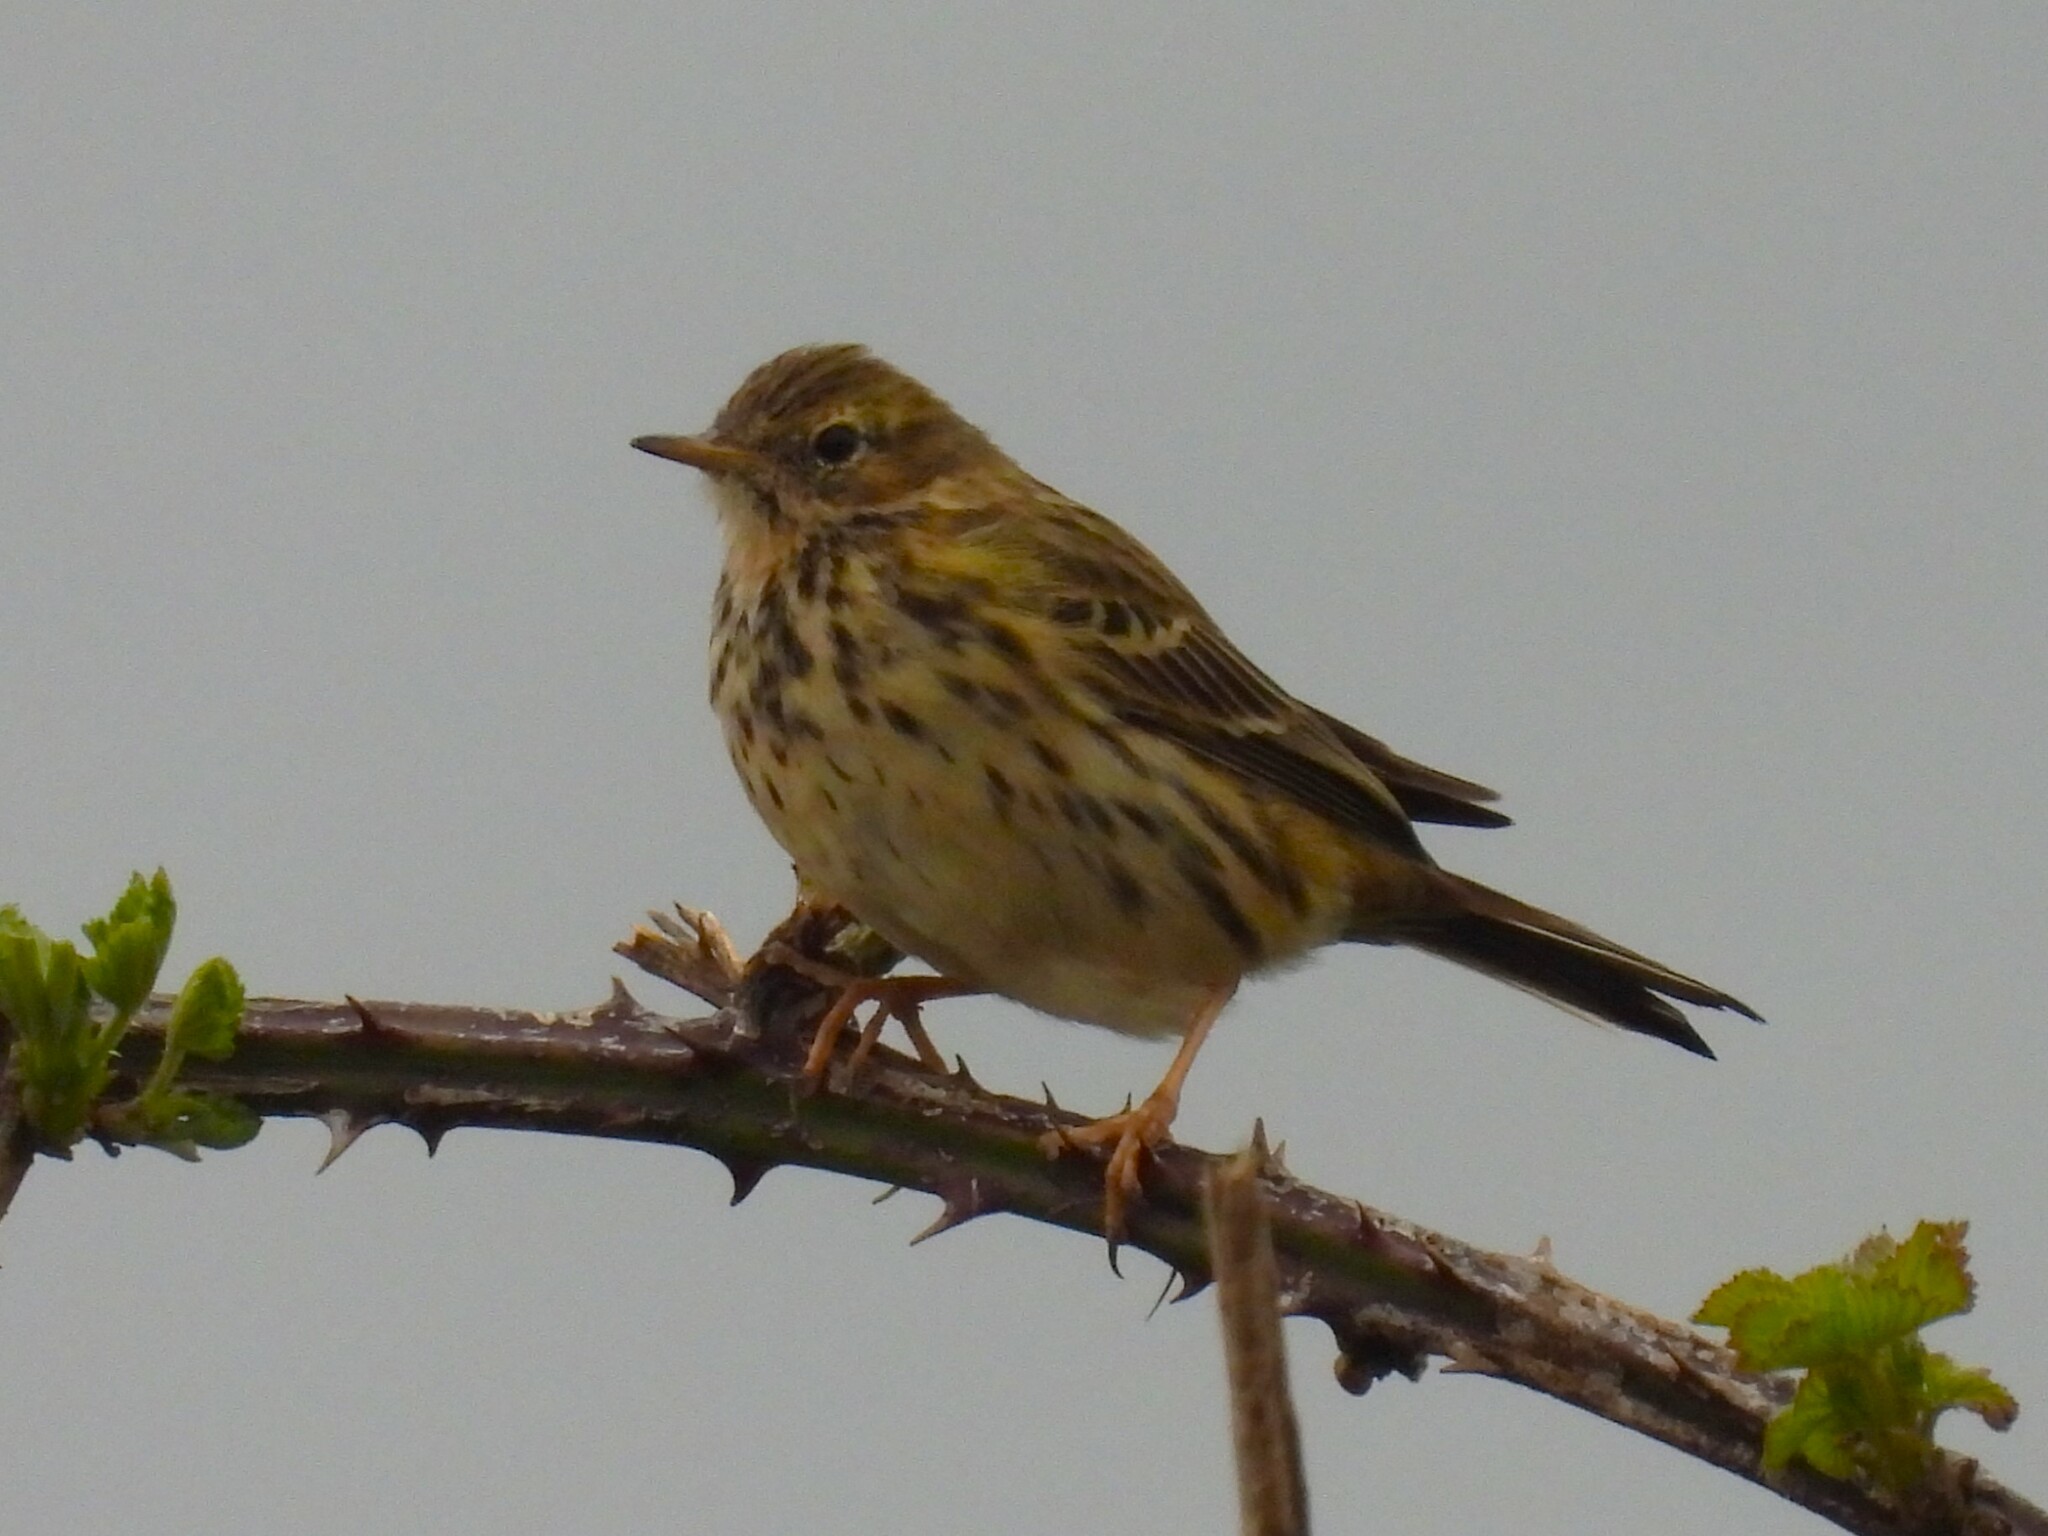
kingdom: Animalia
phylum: Chordata
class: Aves
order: Passeriformes
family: Motacillidae
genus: Anthus
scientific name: Anthus pratensis
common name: Meadow pipit
